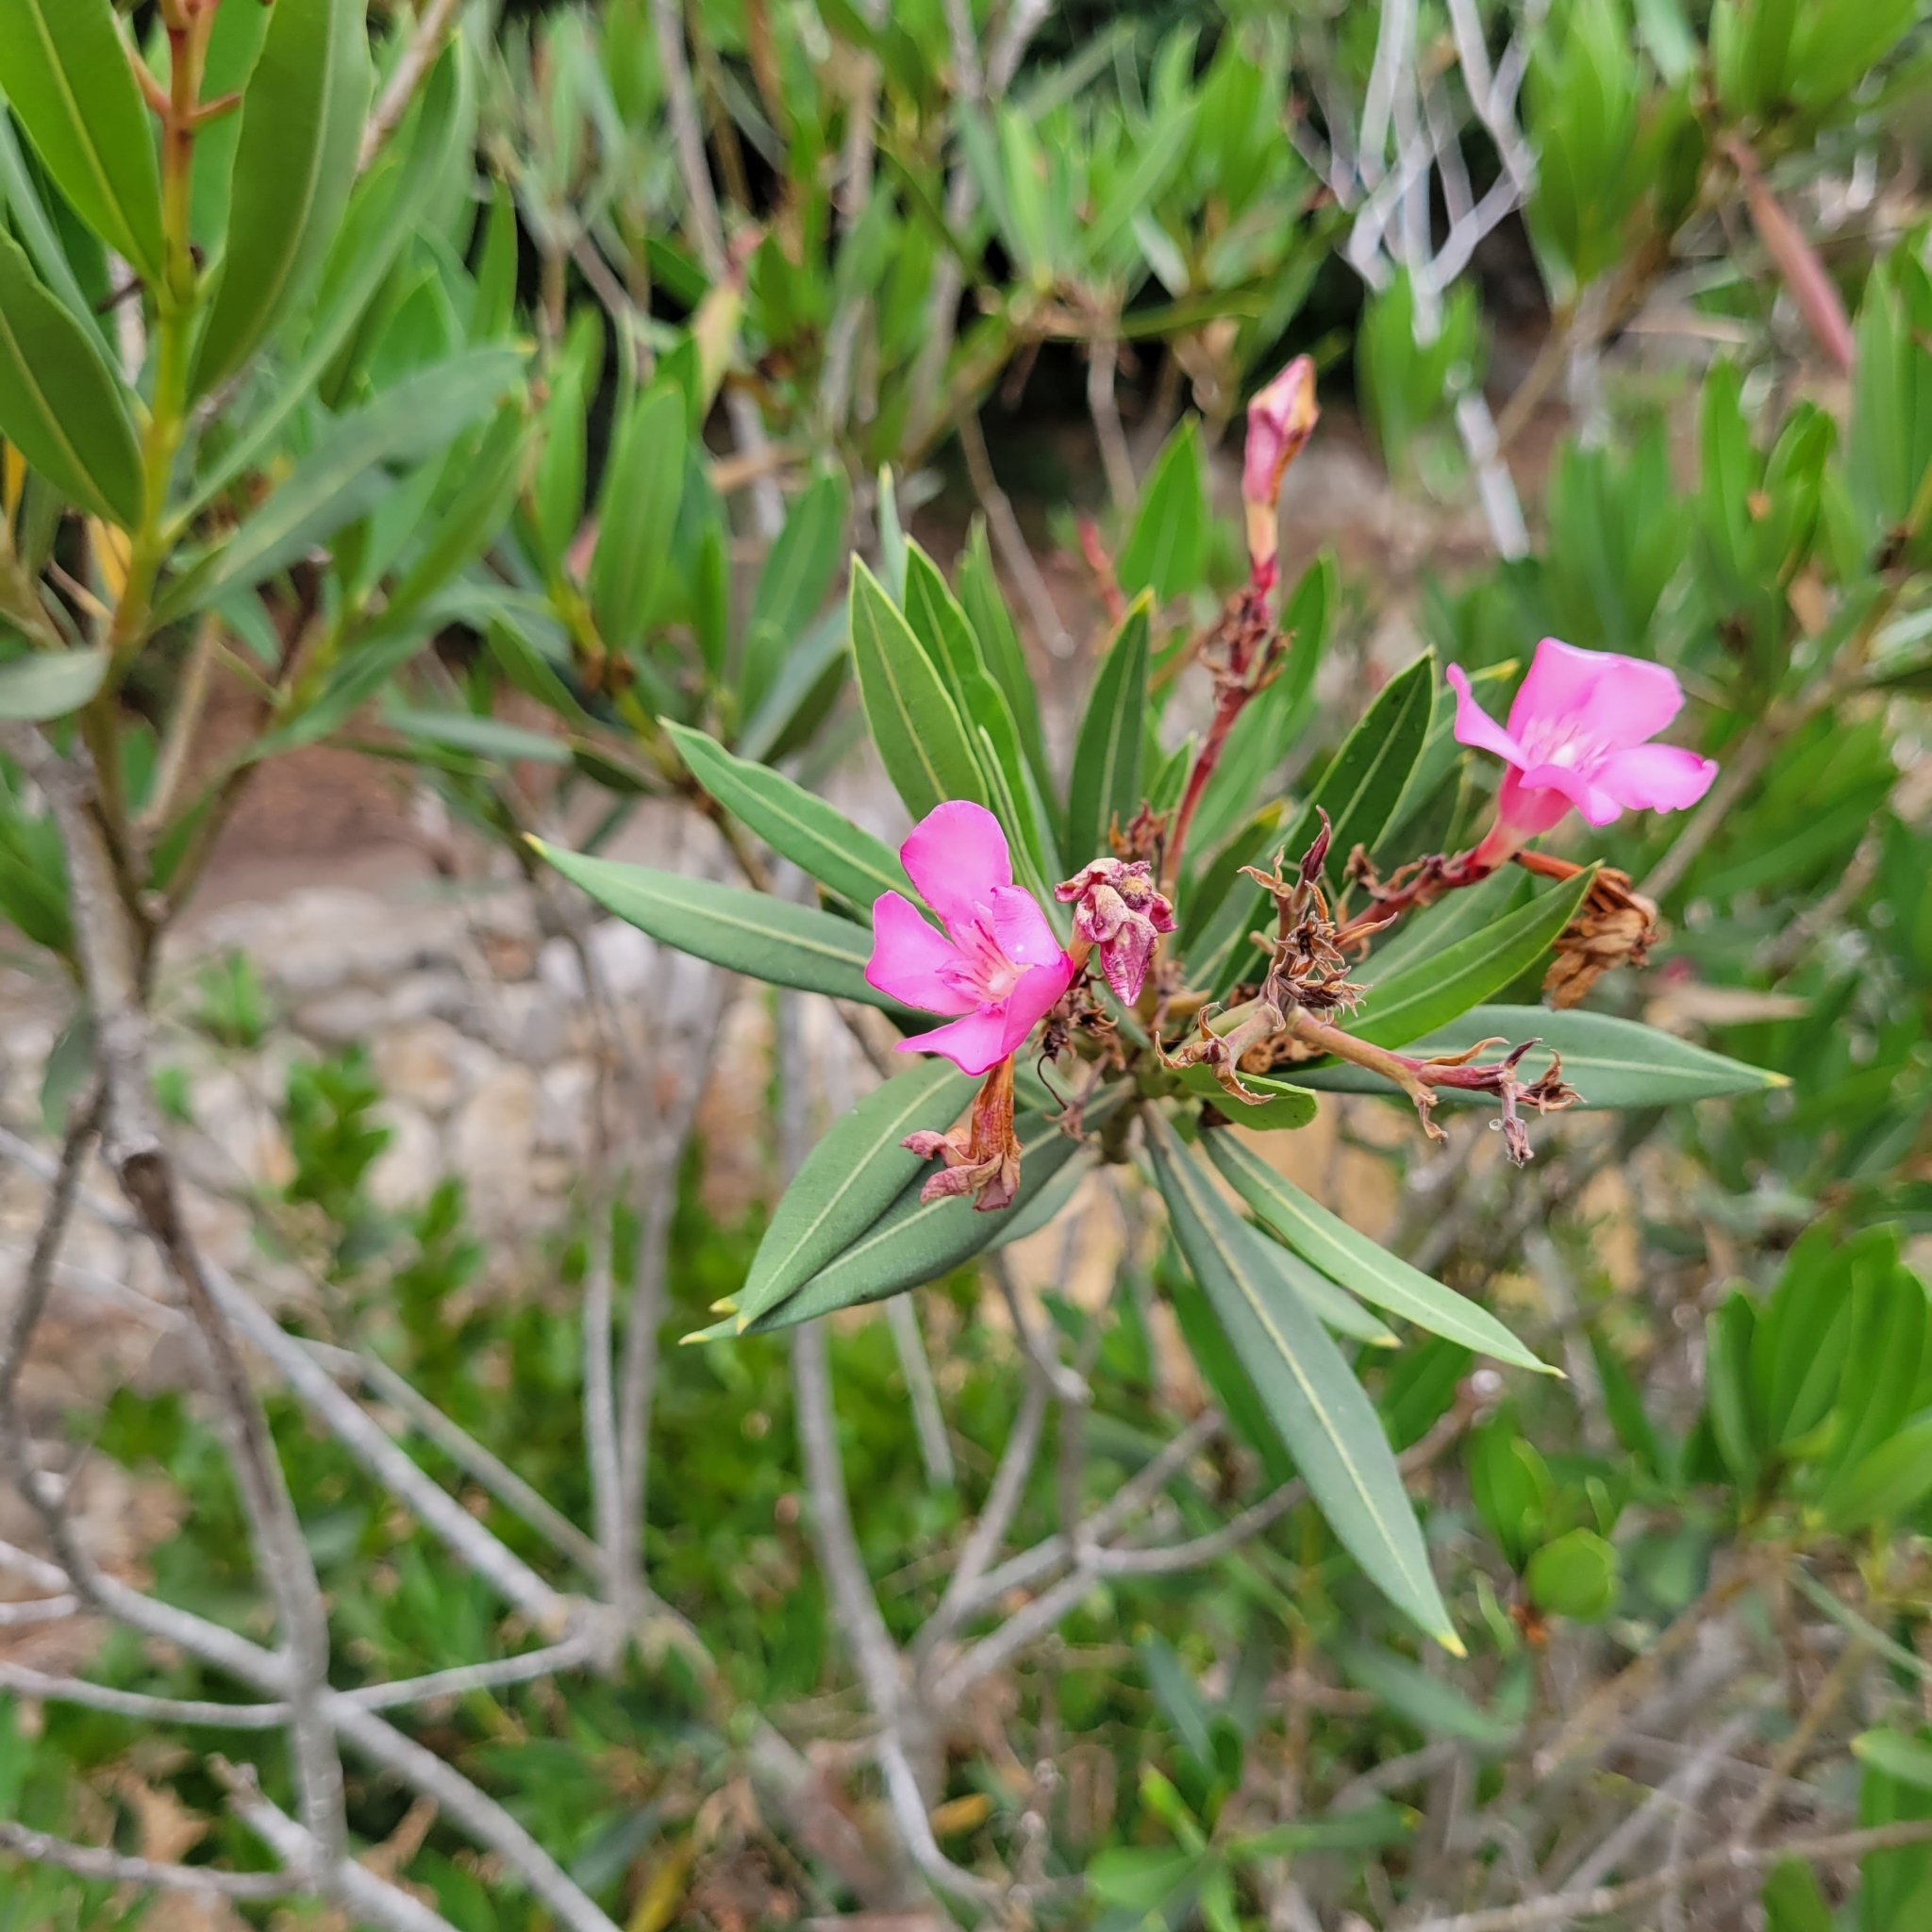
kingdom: Plantae
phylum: Tracheophyta
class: Magnoliopsida
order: Gentianales
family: Apocynaceae
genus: Nerium
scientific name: Nerium oleander
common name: Oleander
